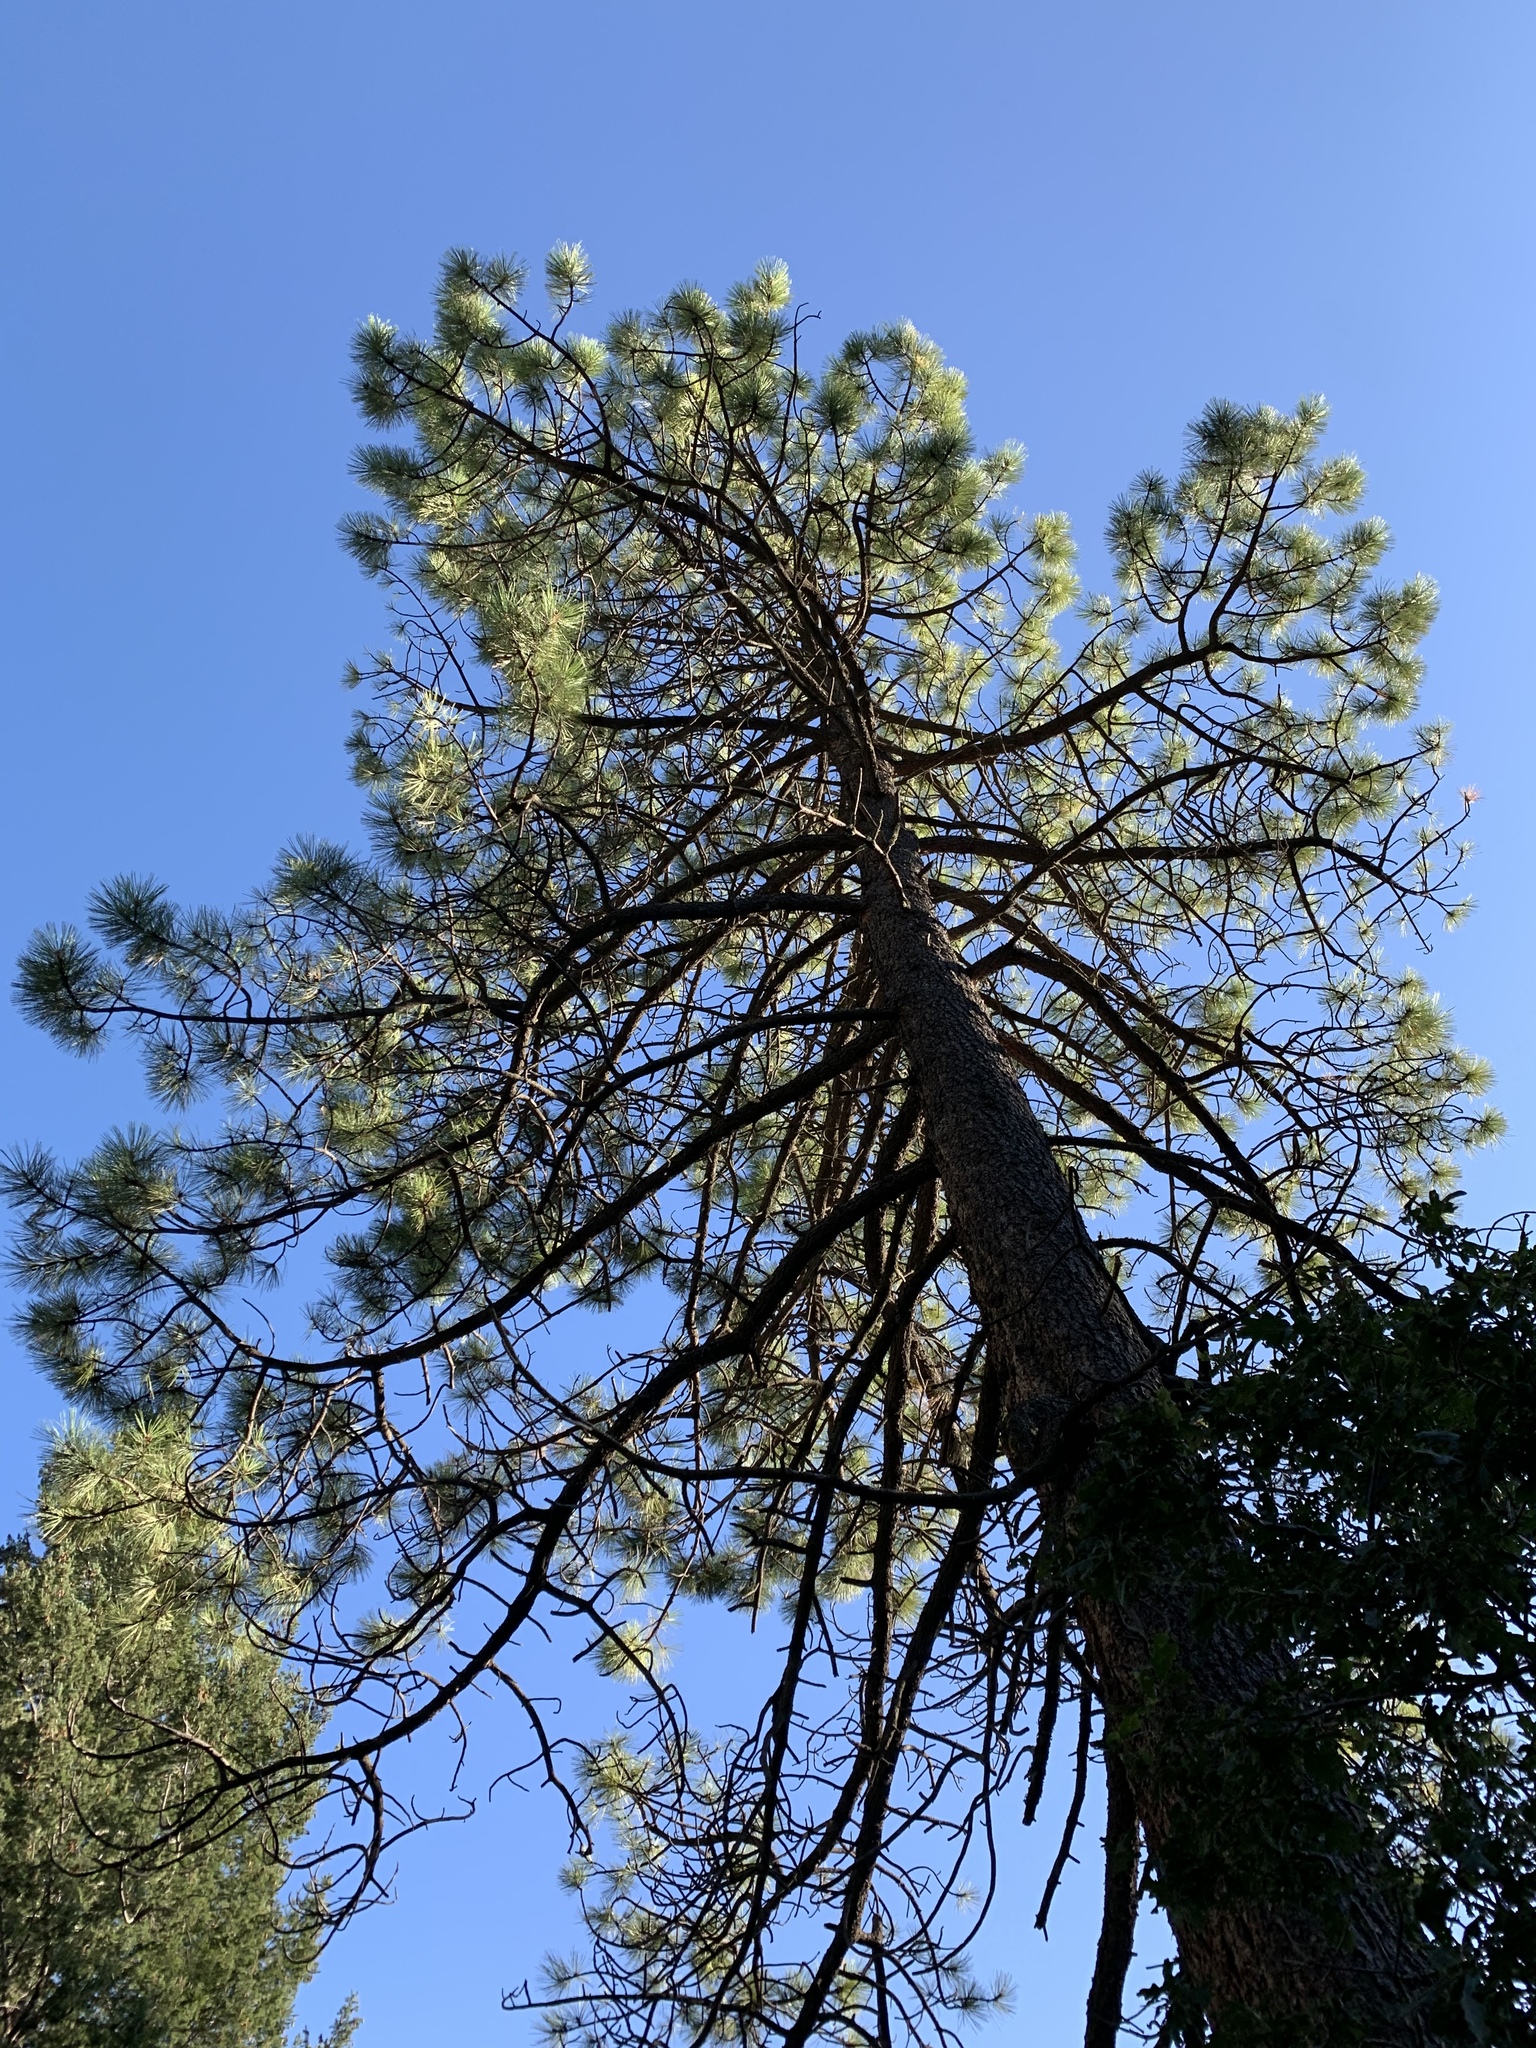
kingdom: Plantae
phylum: Tracheophyta
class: Pinopsida
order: Pinales
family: Pinaceae
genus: Pinus
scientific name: Pinus ponderosa
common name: Western yellow-pine
